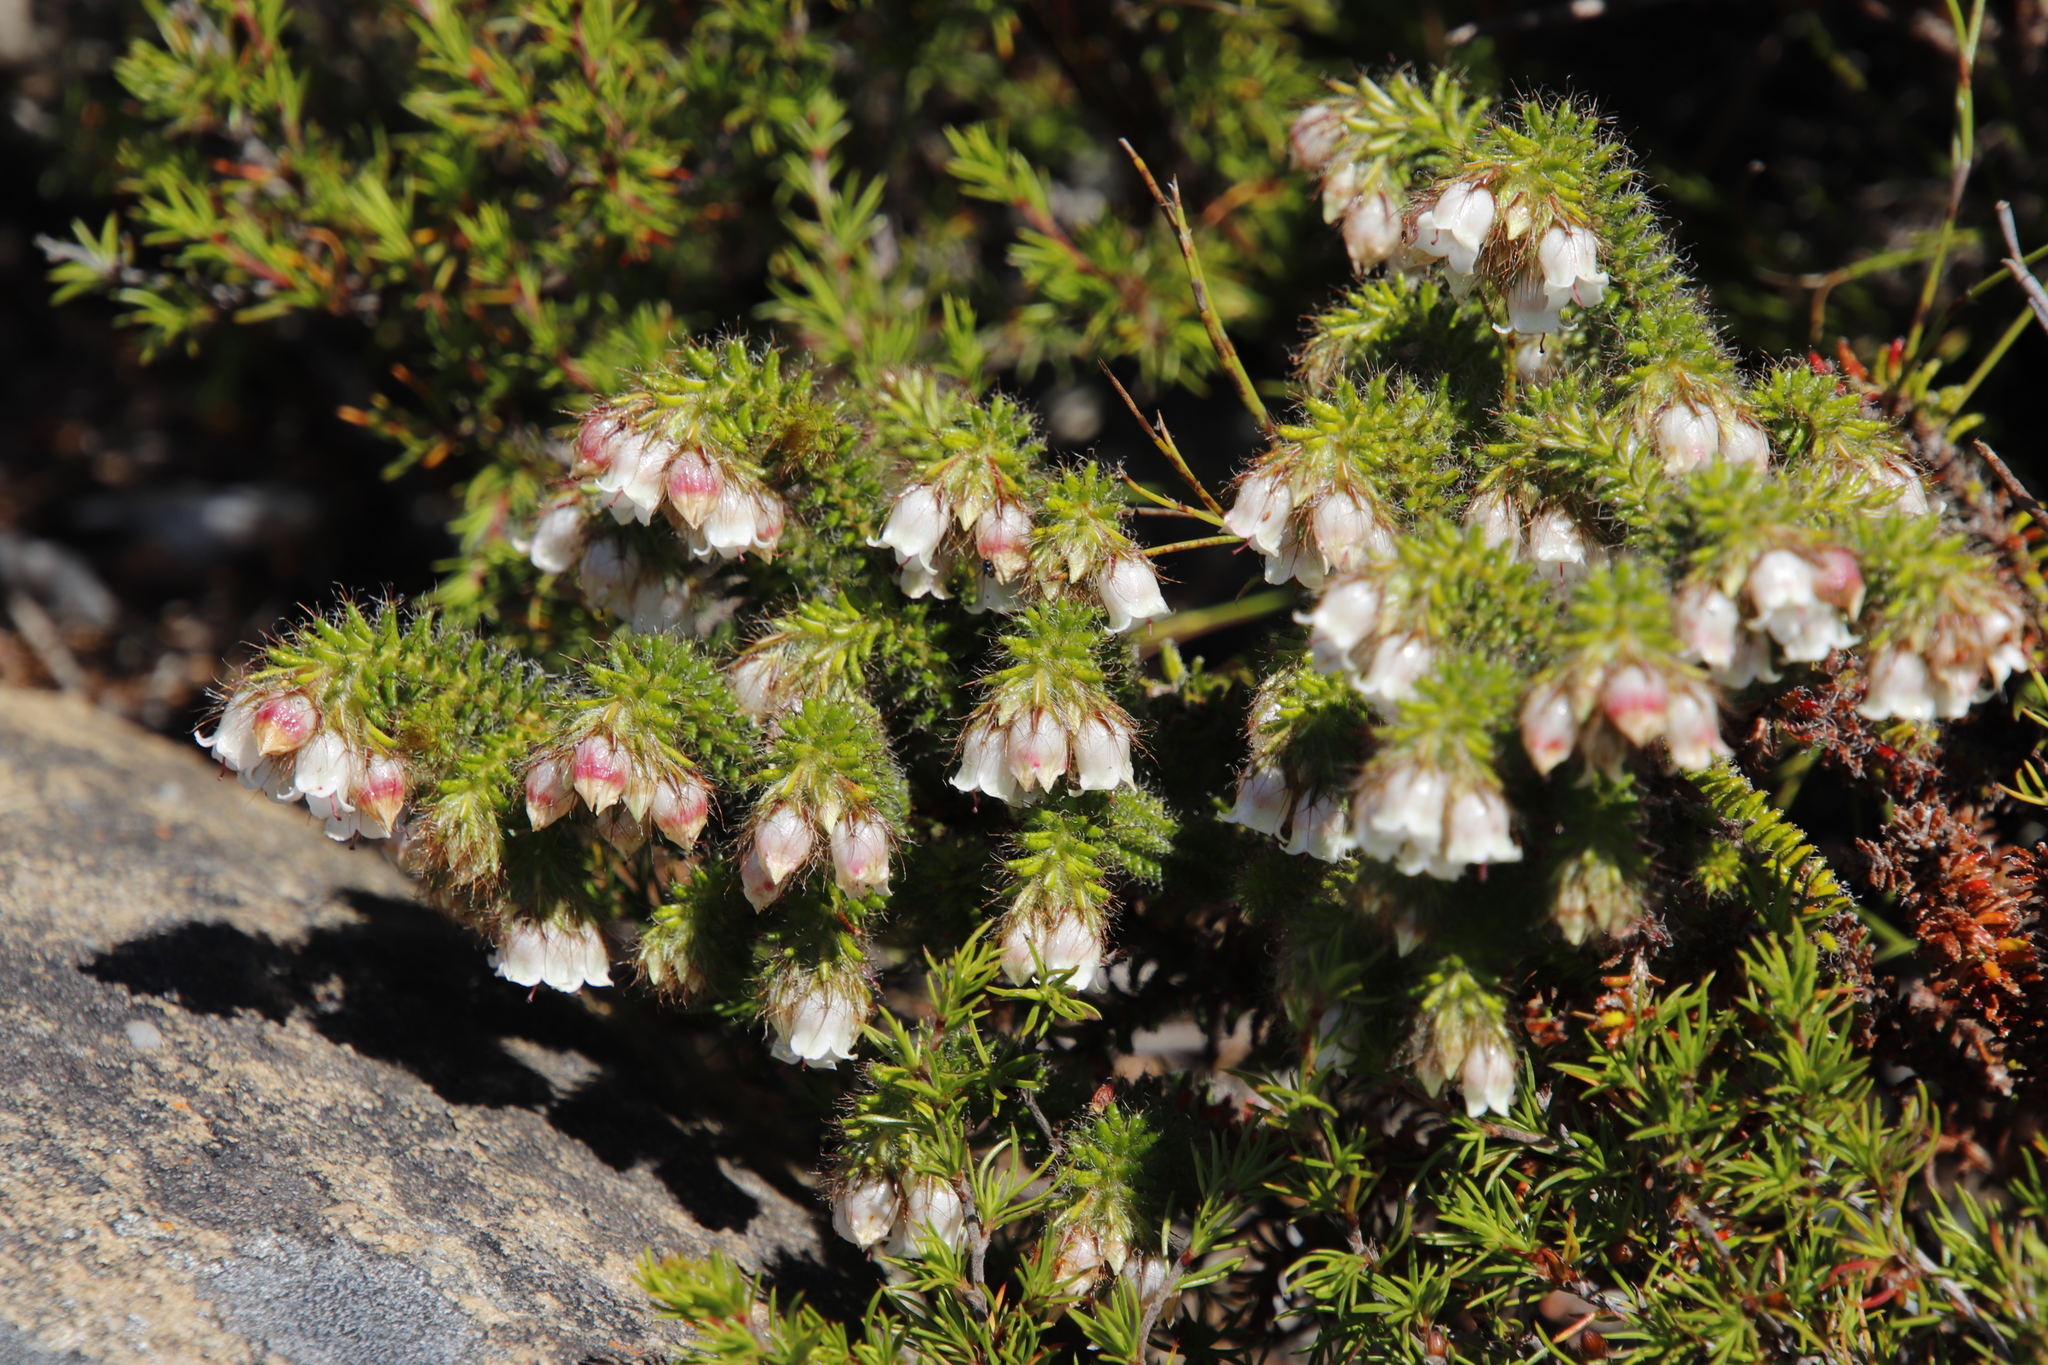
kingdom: Plantae
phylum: Tracheophyta
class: Magnoliopsida
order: Ericales
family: Ericaceae
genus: Erica
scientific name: Erica cygnea
